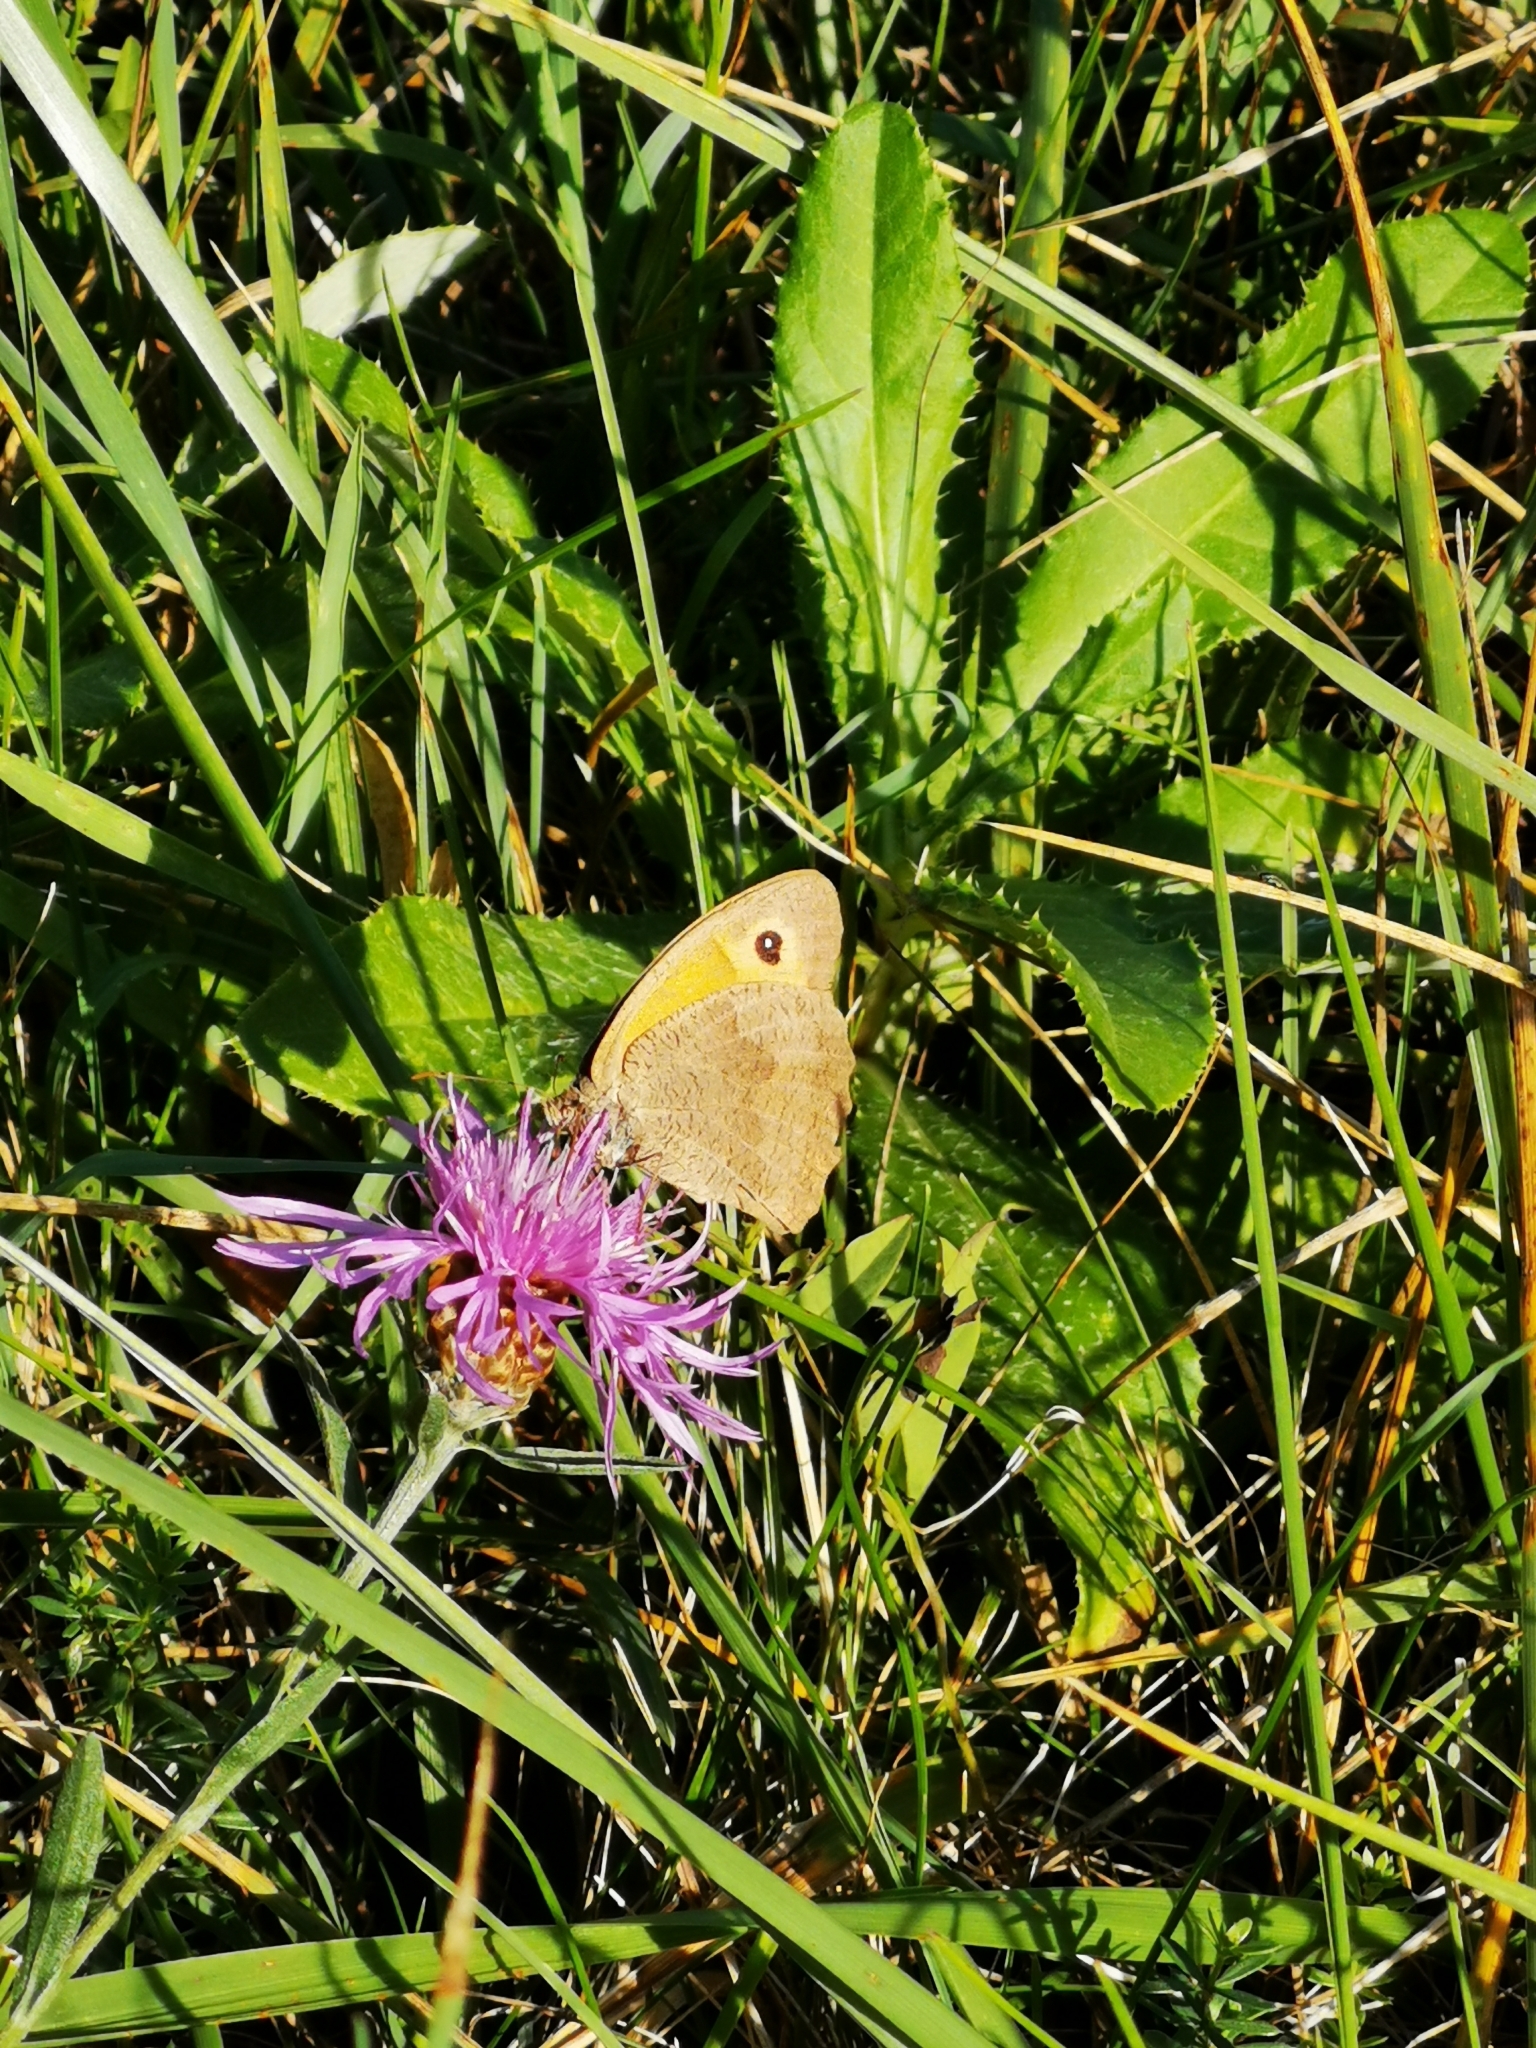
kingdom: Animalia
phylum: Arthropoda
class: Insecta
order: Lepidoptera
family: Nymphalidae
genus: Maniola
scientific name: Maniola jurtina
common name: Meadow brown
